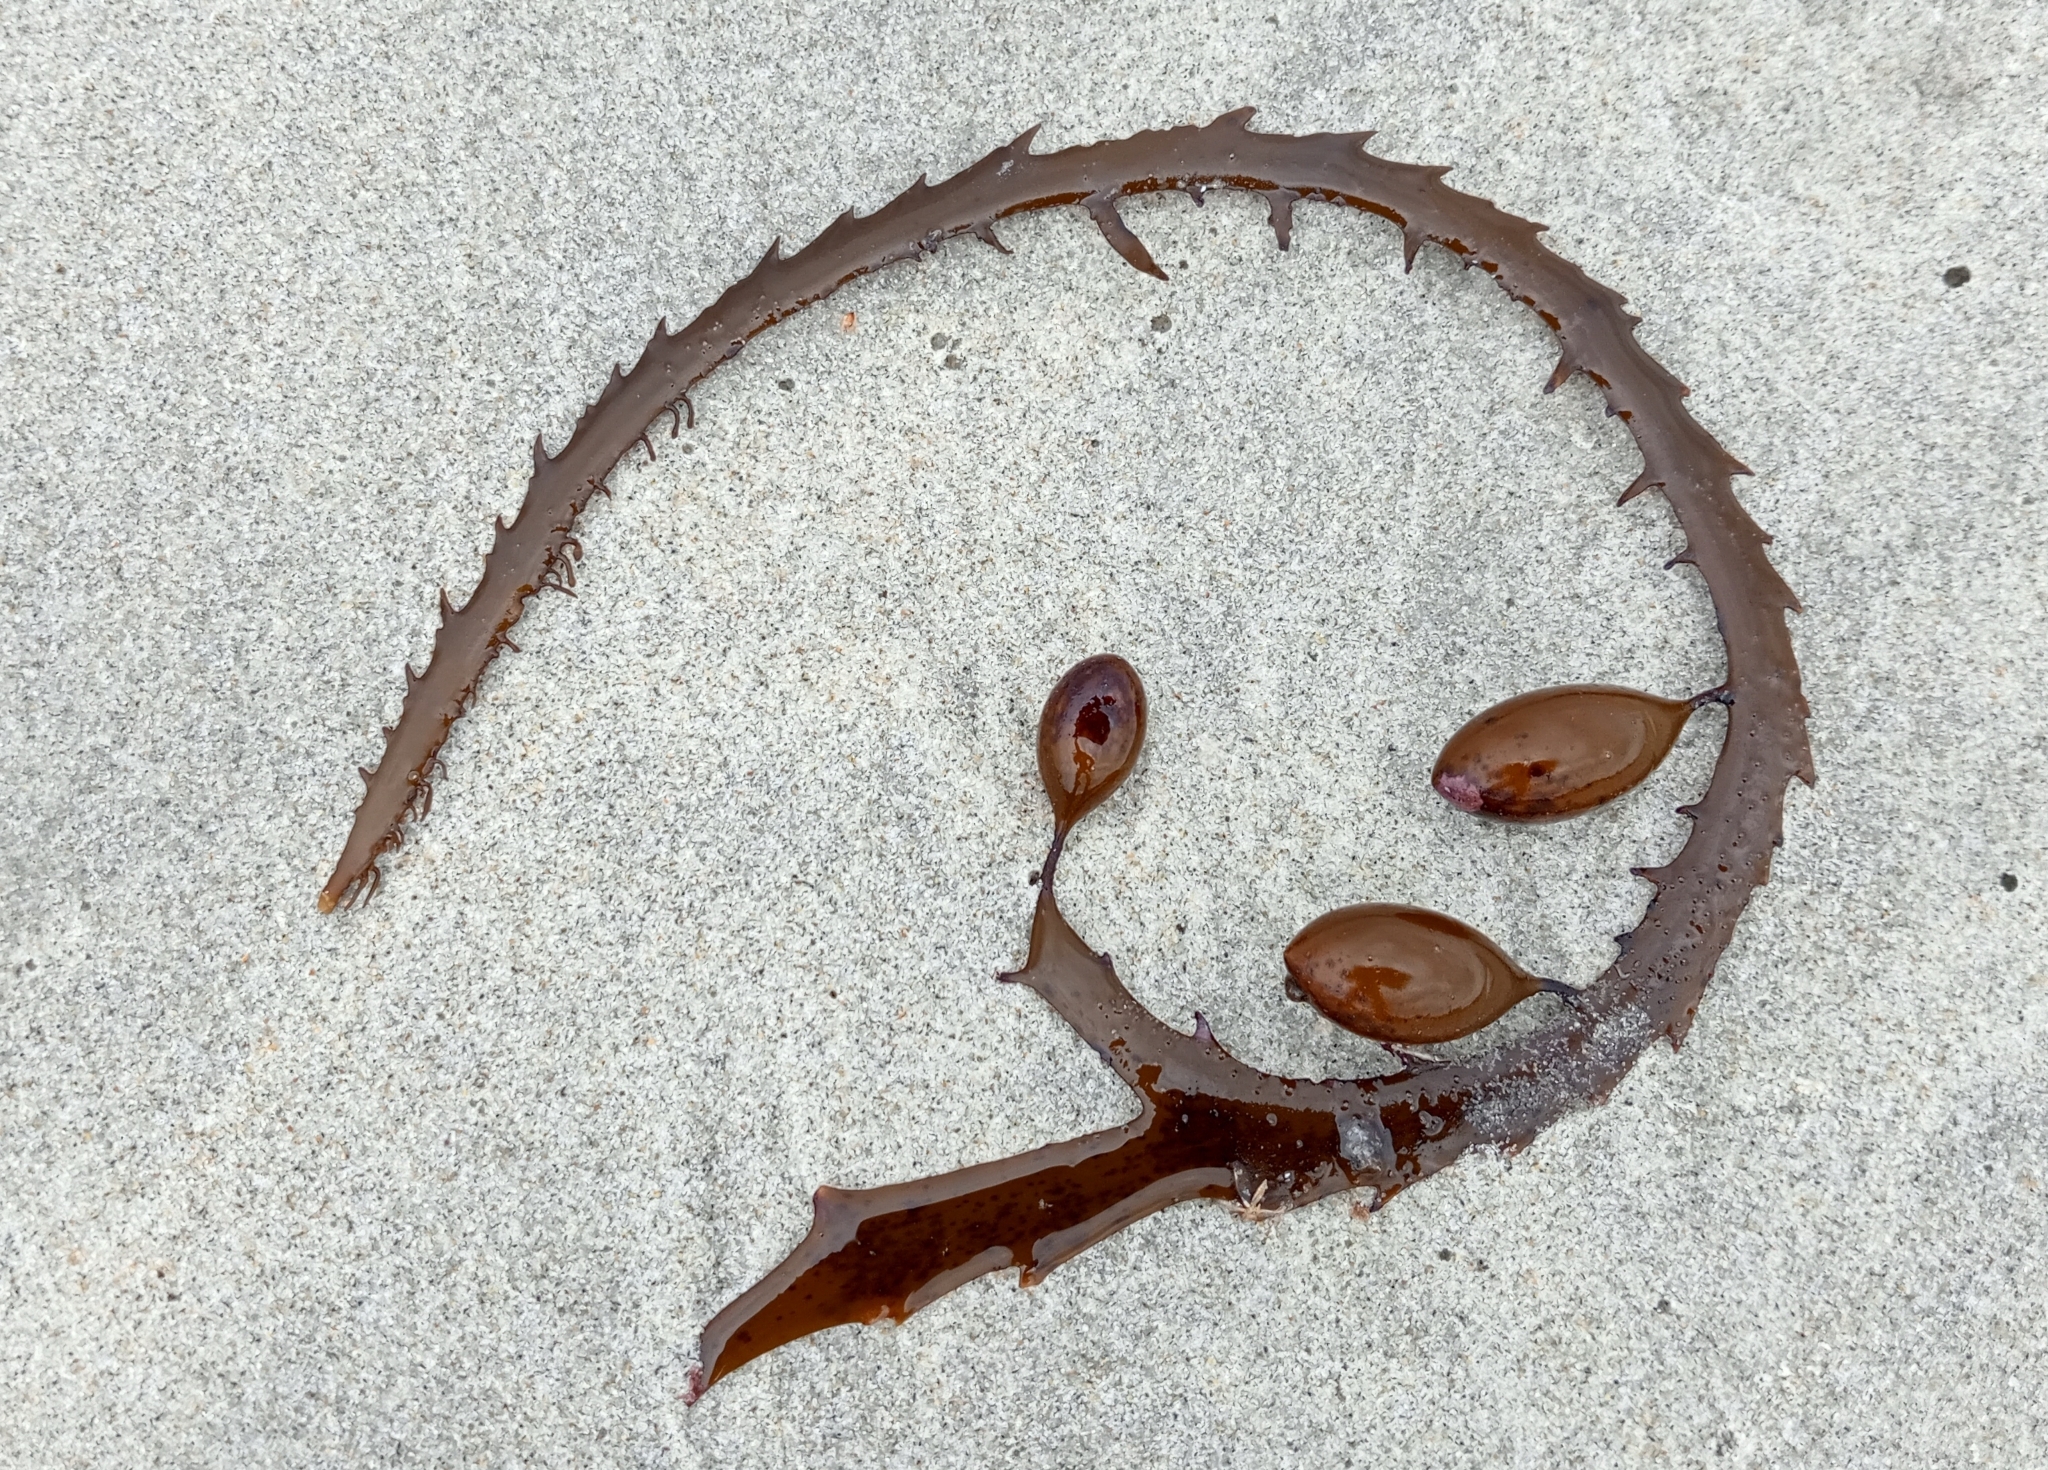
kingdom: Chromista
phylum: Ochrophyta
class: Phaeophyceae
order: Fucales
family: Seirococcaceae
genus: Marginariella
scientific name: Marginariella boryana
